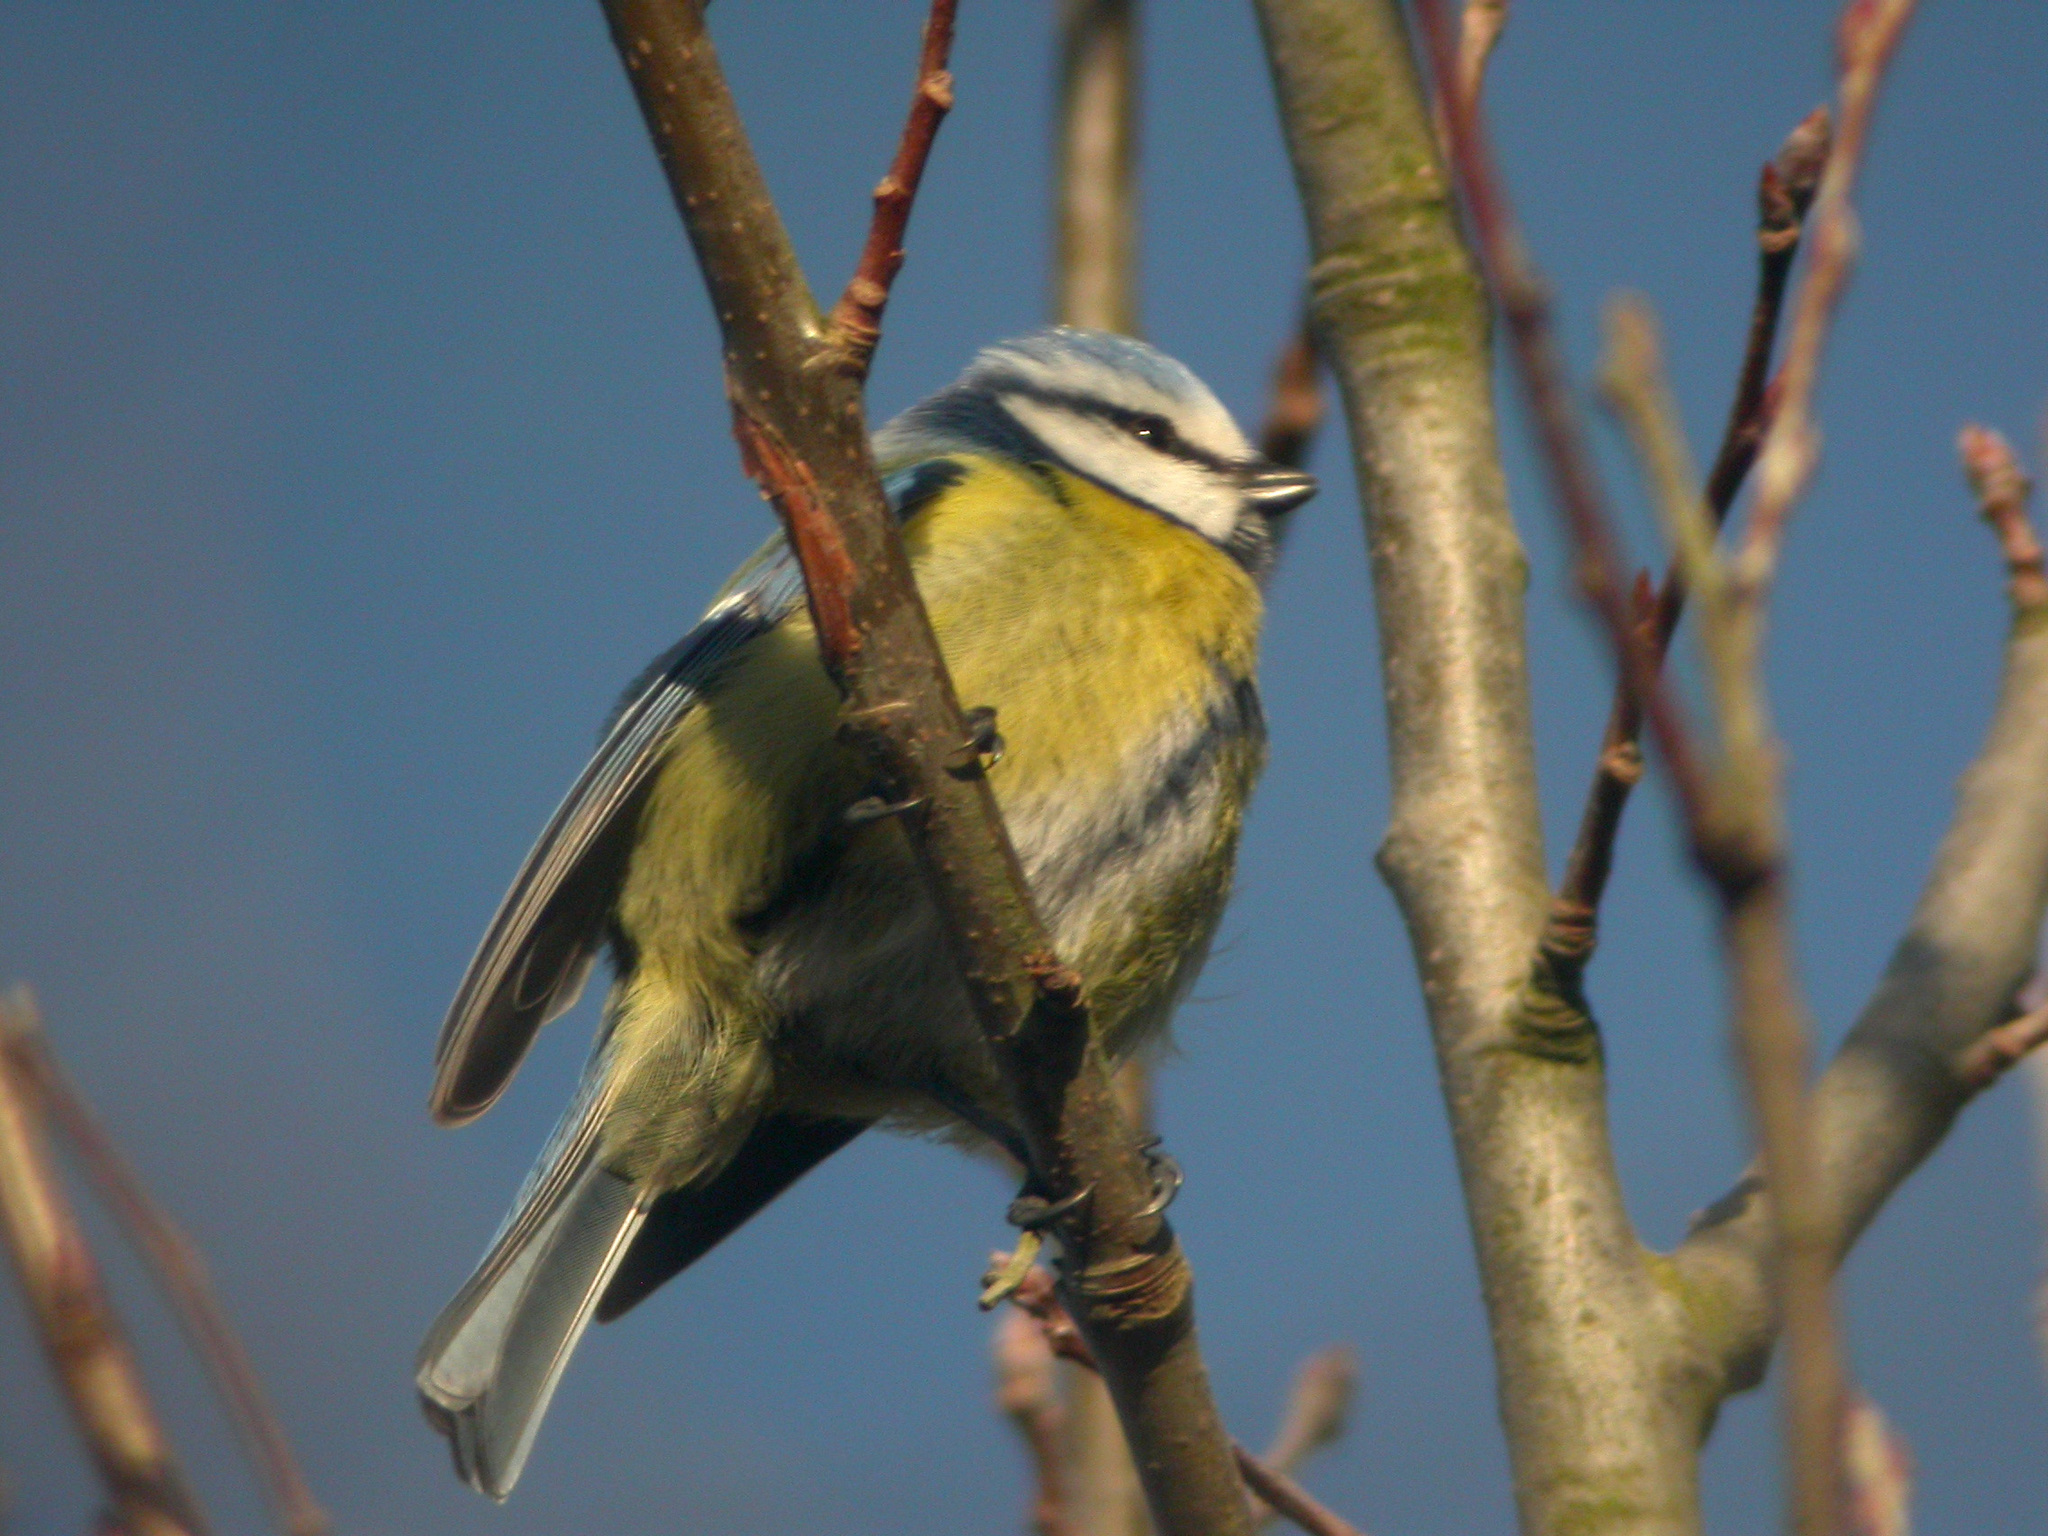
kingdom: Animalia
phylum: Chordata
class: Aves
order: Passeriformes
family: Paridae
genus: Cyanistes
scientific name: Cyanistes caeruleus
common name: Eurasian blue tit
